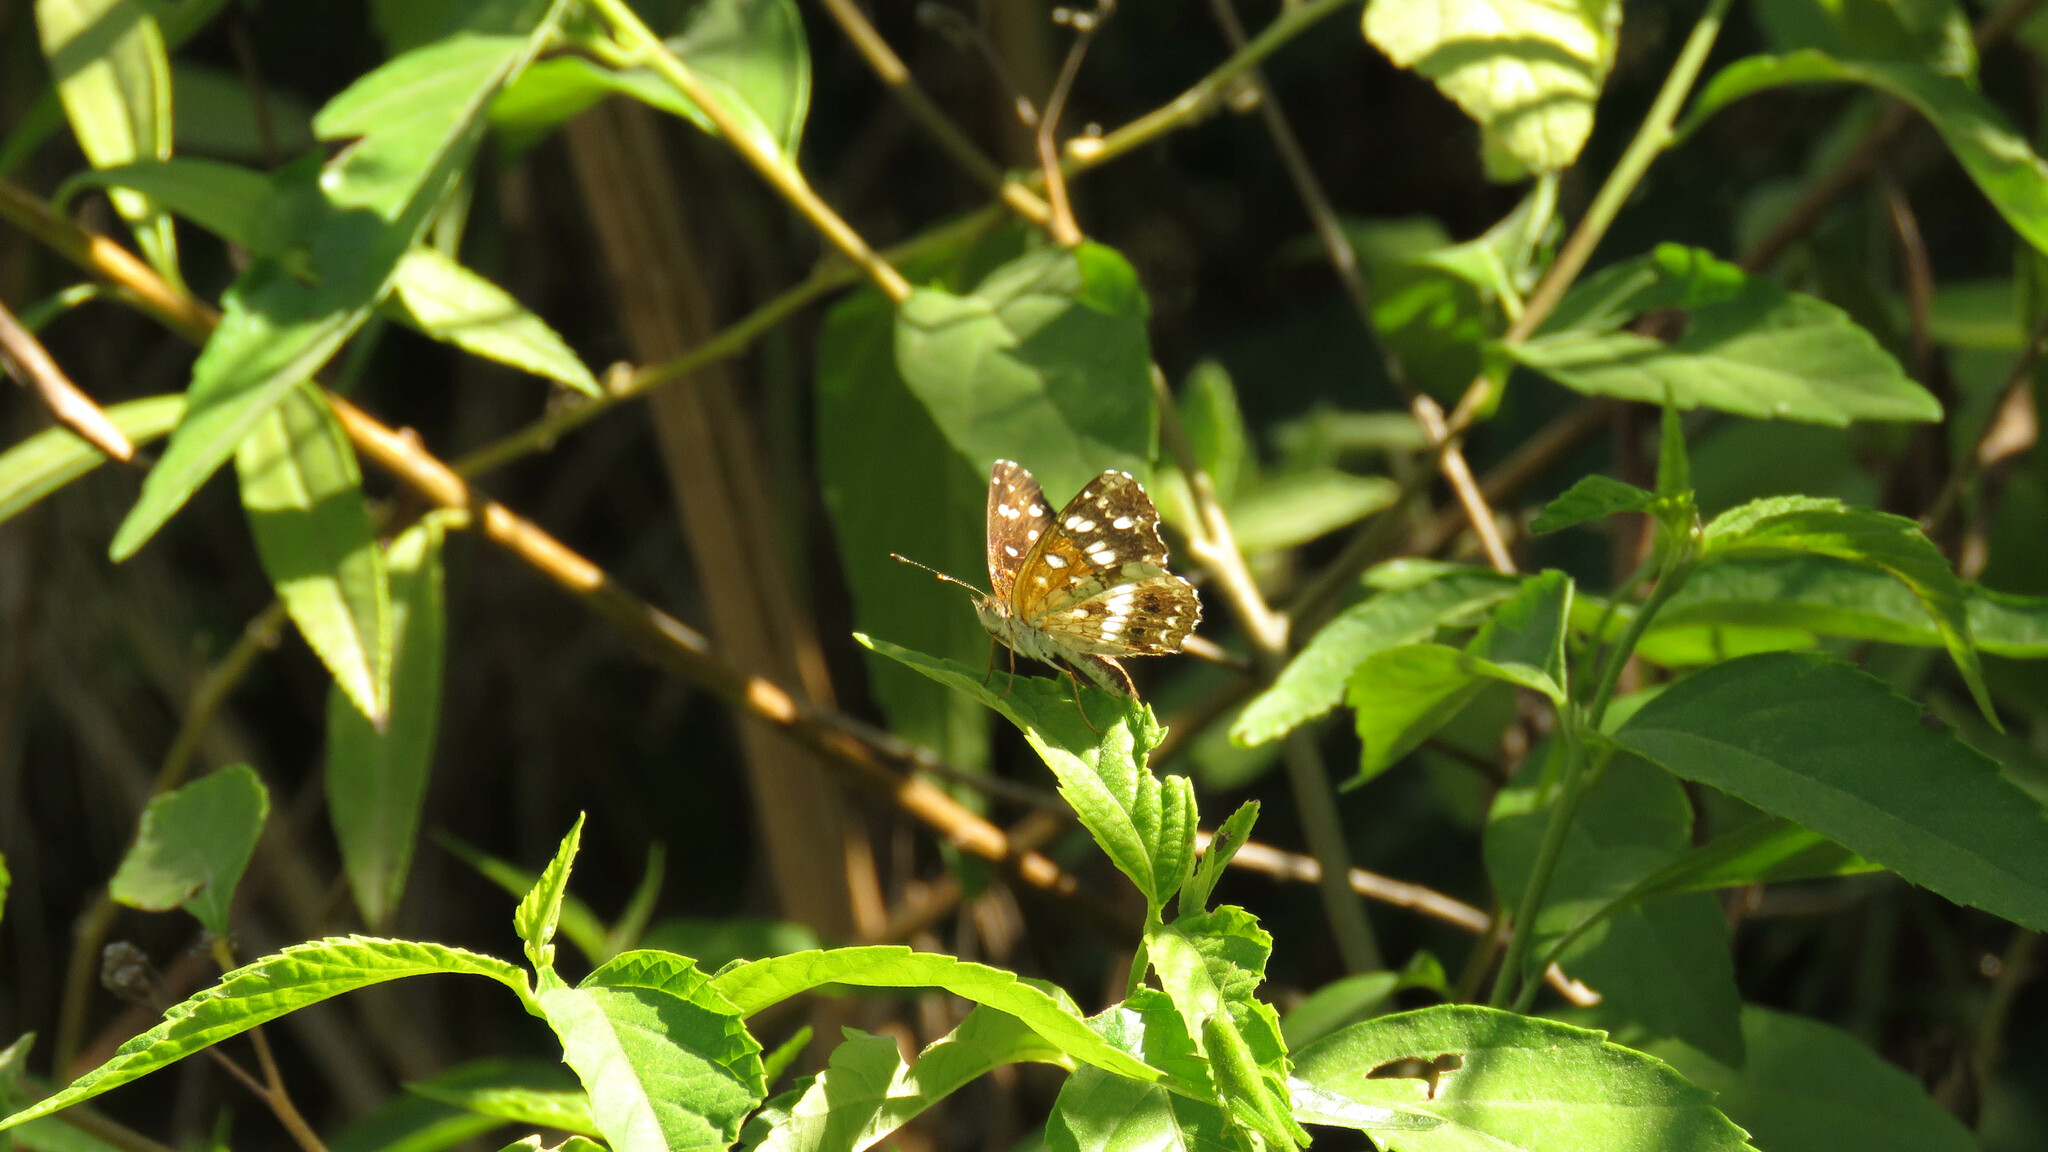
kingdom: Animalia
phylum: Arthropoda
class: Insecta
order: Lepidoptera
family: Nymphalidae
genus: Ortilia
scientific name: Ortilia ithra
